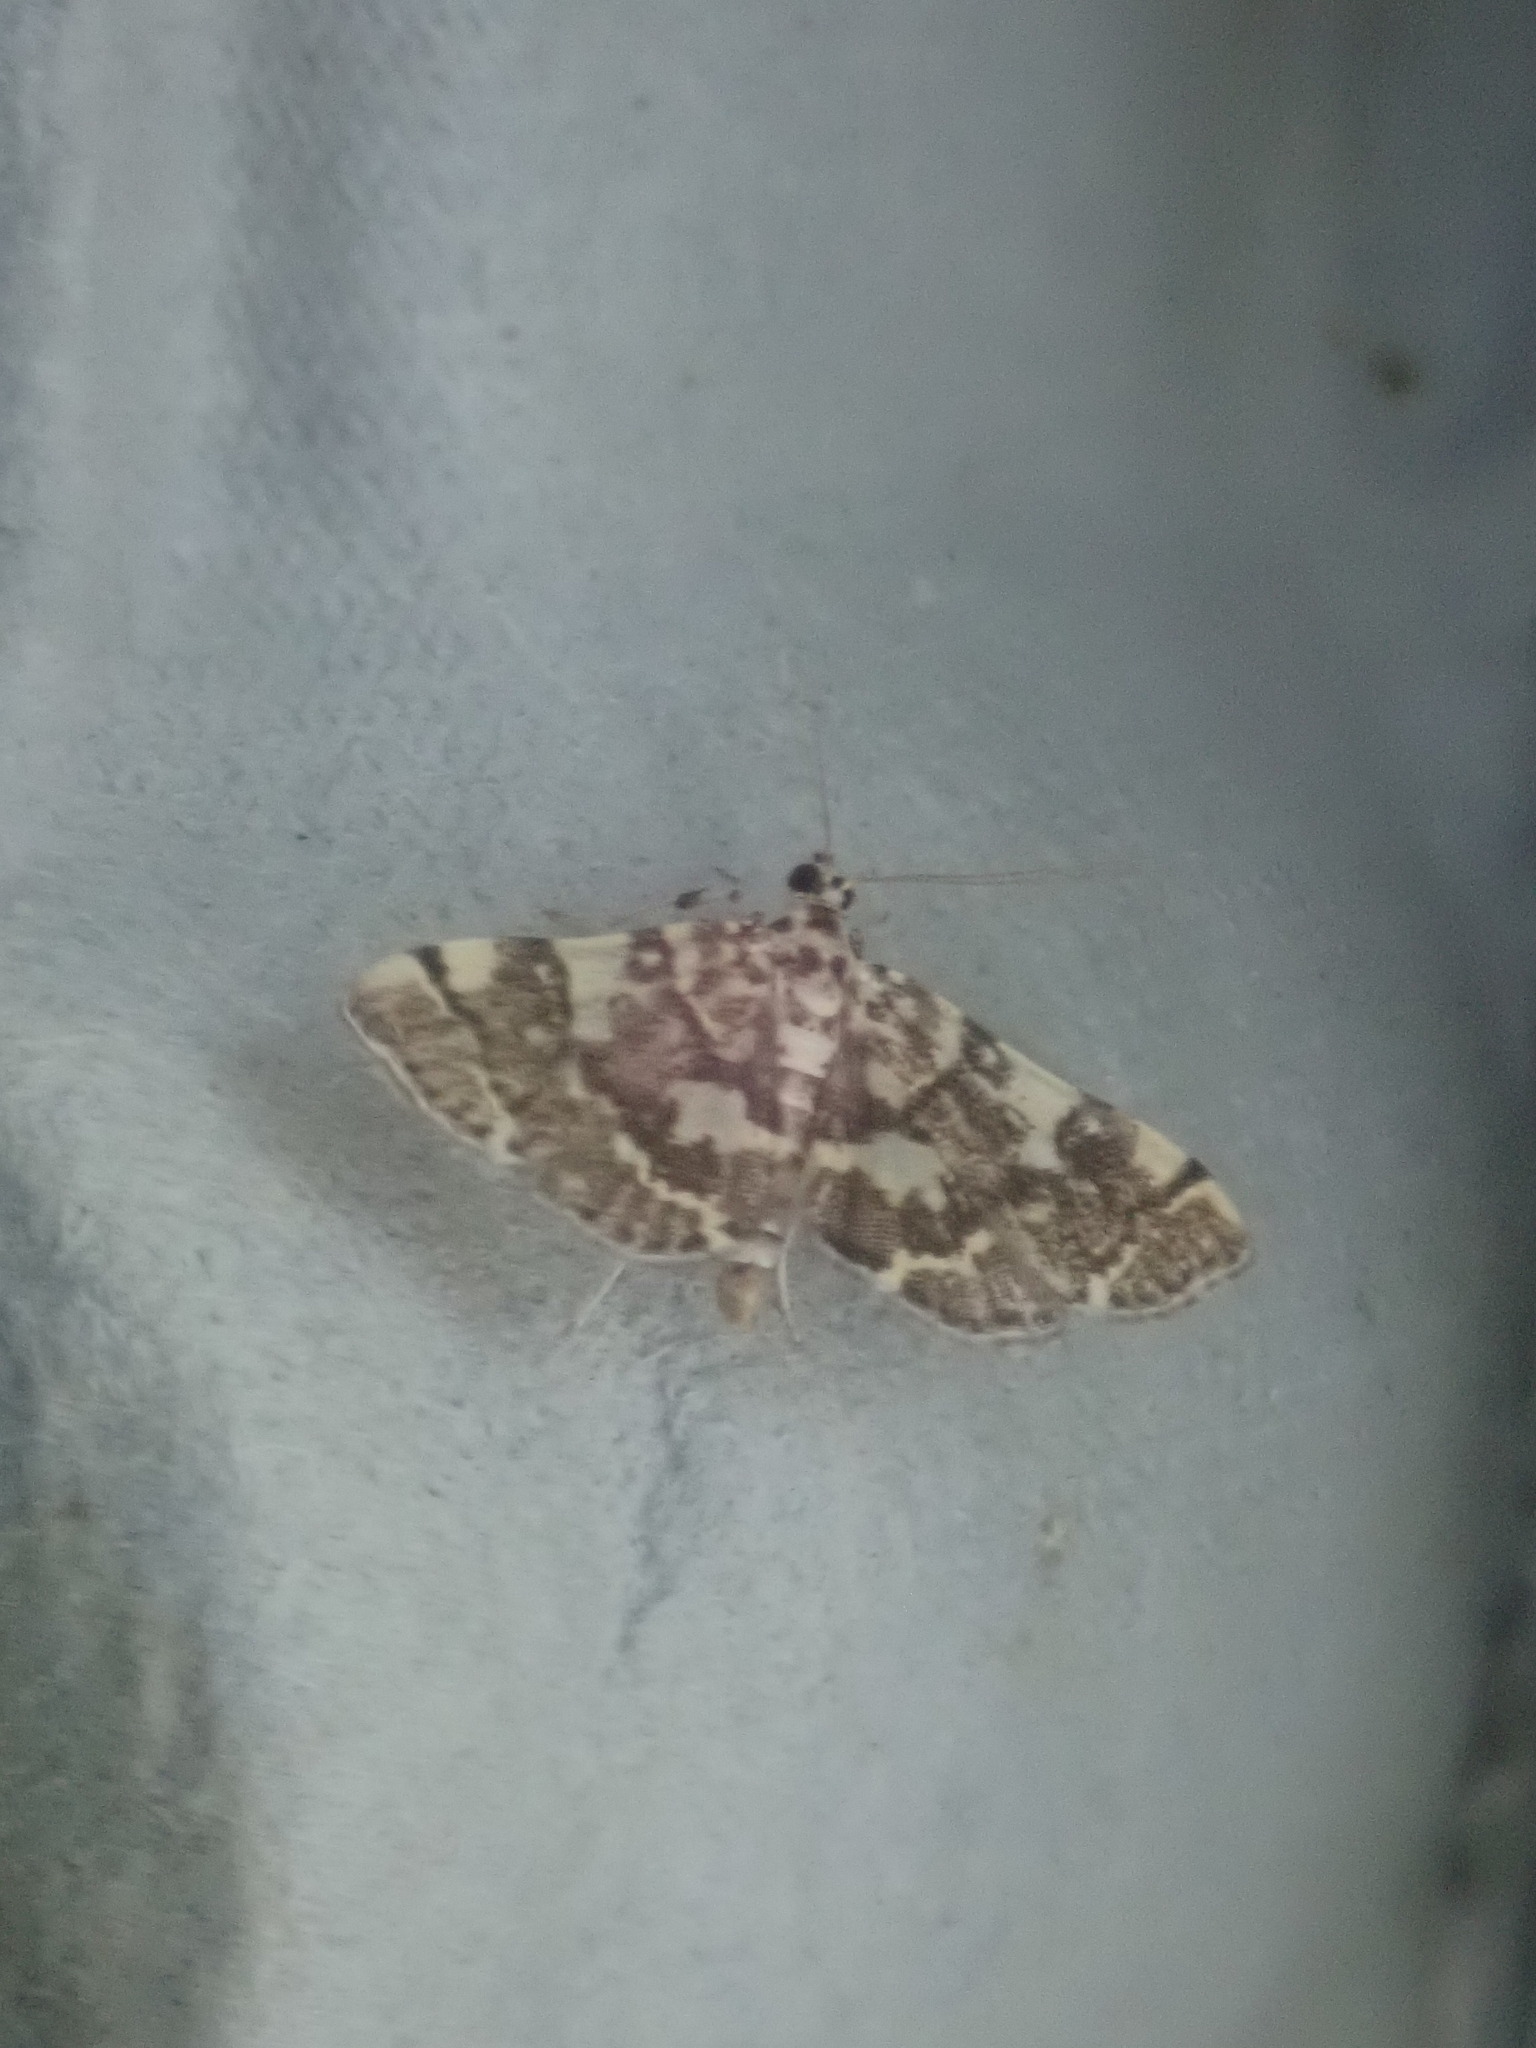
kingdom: Animalia
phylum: Arthropoda
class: Insecta
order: Lepidoptera
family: Crambidae
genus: Apogeshna
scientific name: Apogeshna stenialis
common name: Checkered apogeshna moth
